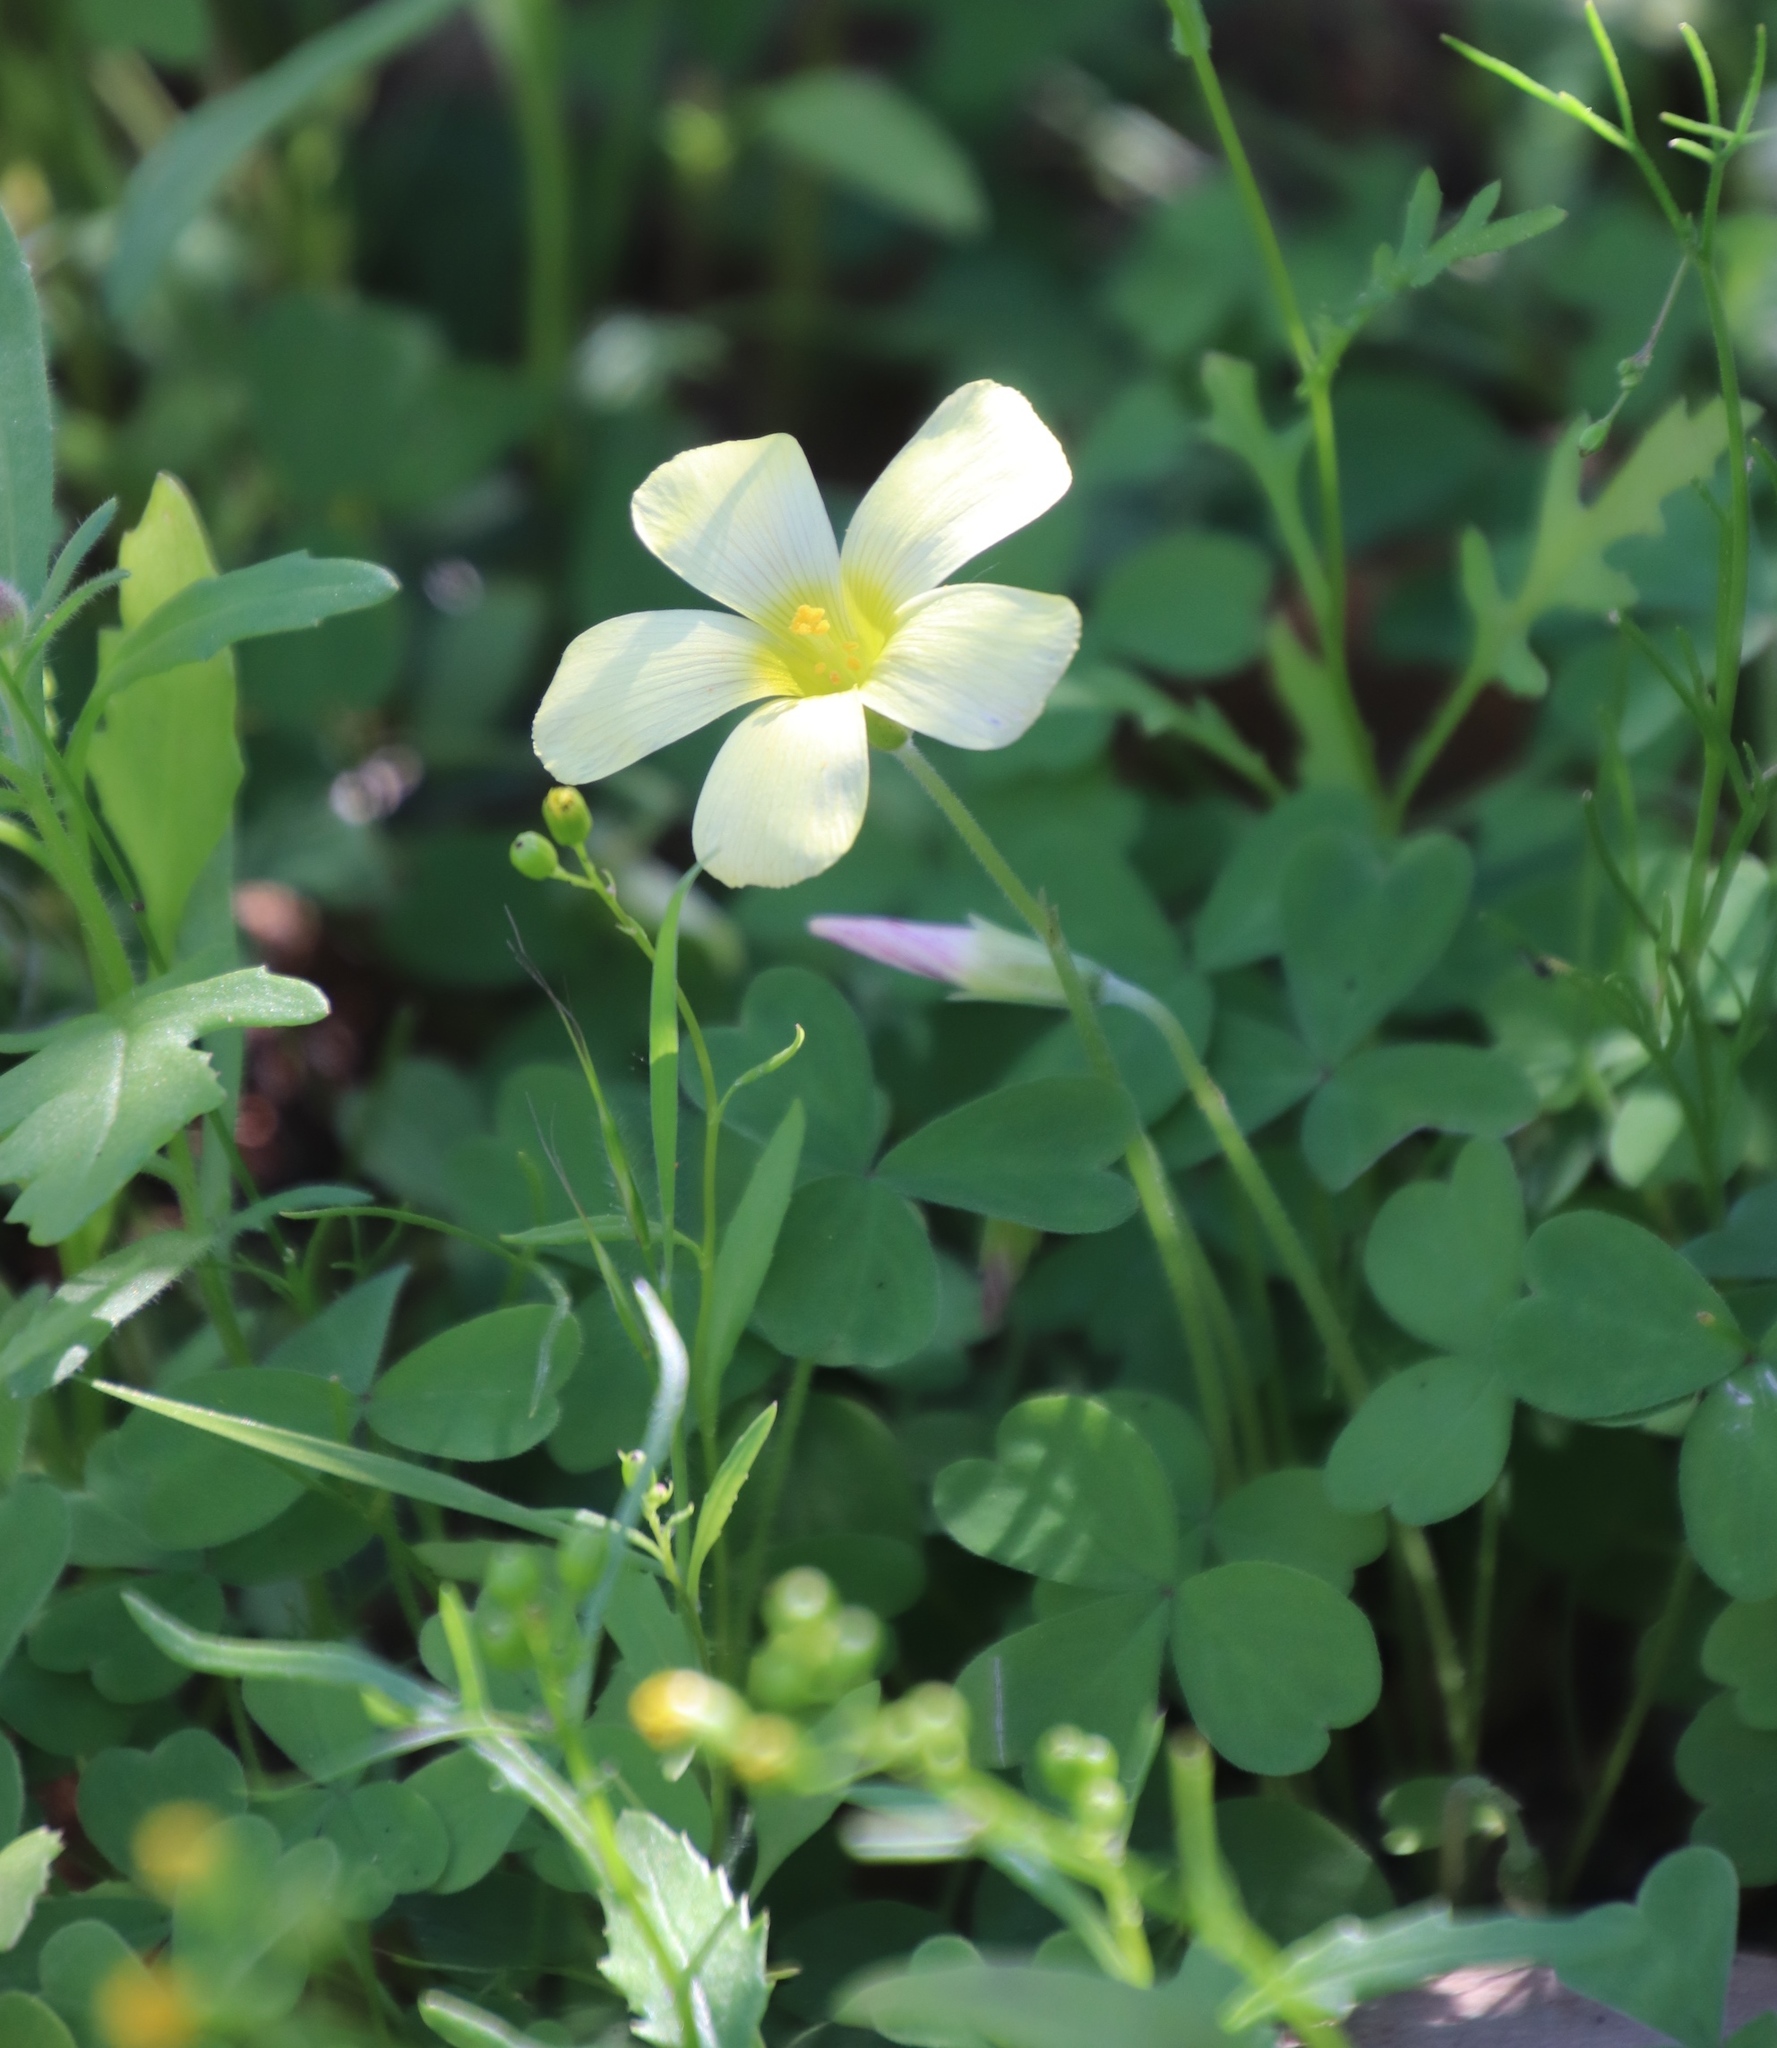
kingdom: Plantae
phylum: Tracheophyta
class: Magnoliopsida
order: Oxalidales
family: Oxalidaceae
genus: Oxalis
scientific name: Oxalis obtusa
